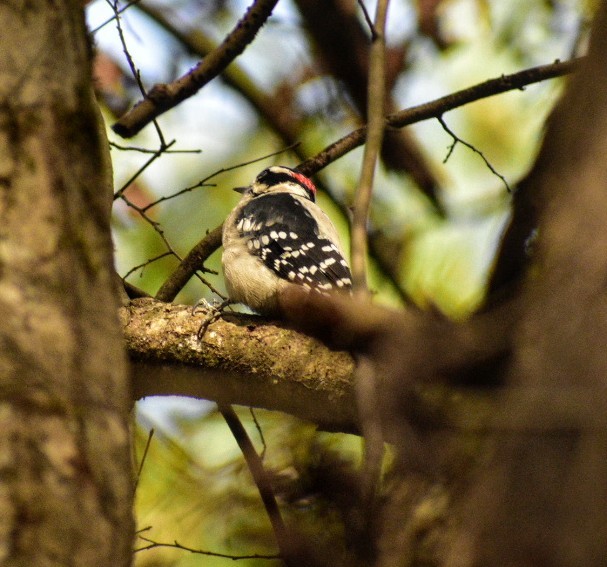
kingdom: Animalia
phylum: Chordata
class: Aves
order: Piciformes
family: Picidae
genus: Dryobates
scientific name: Dryobates pubescens
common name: Downy woodpecker
